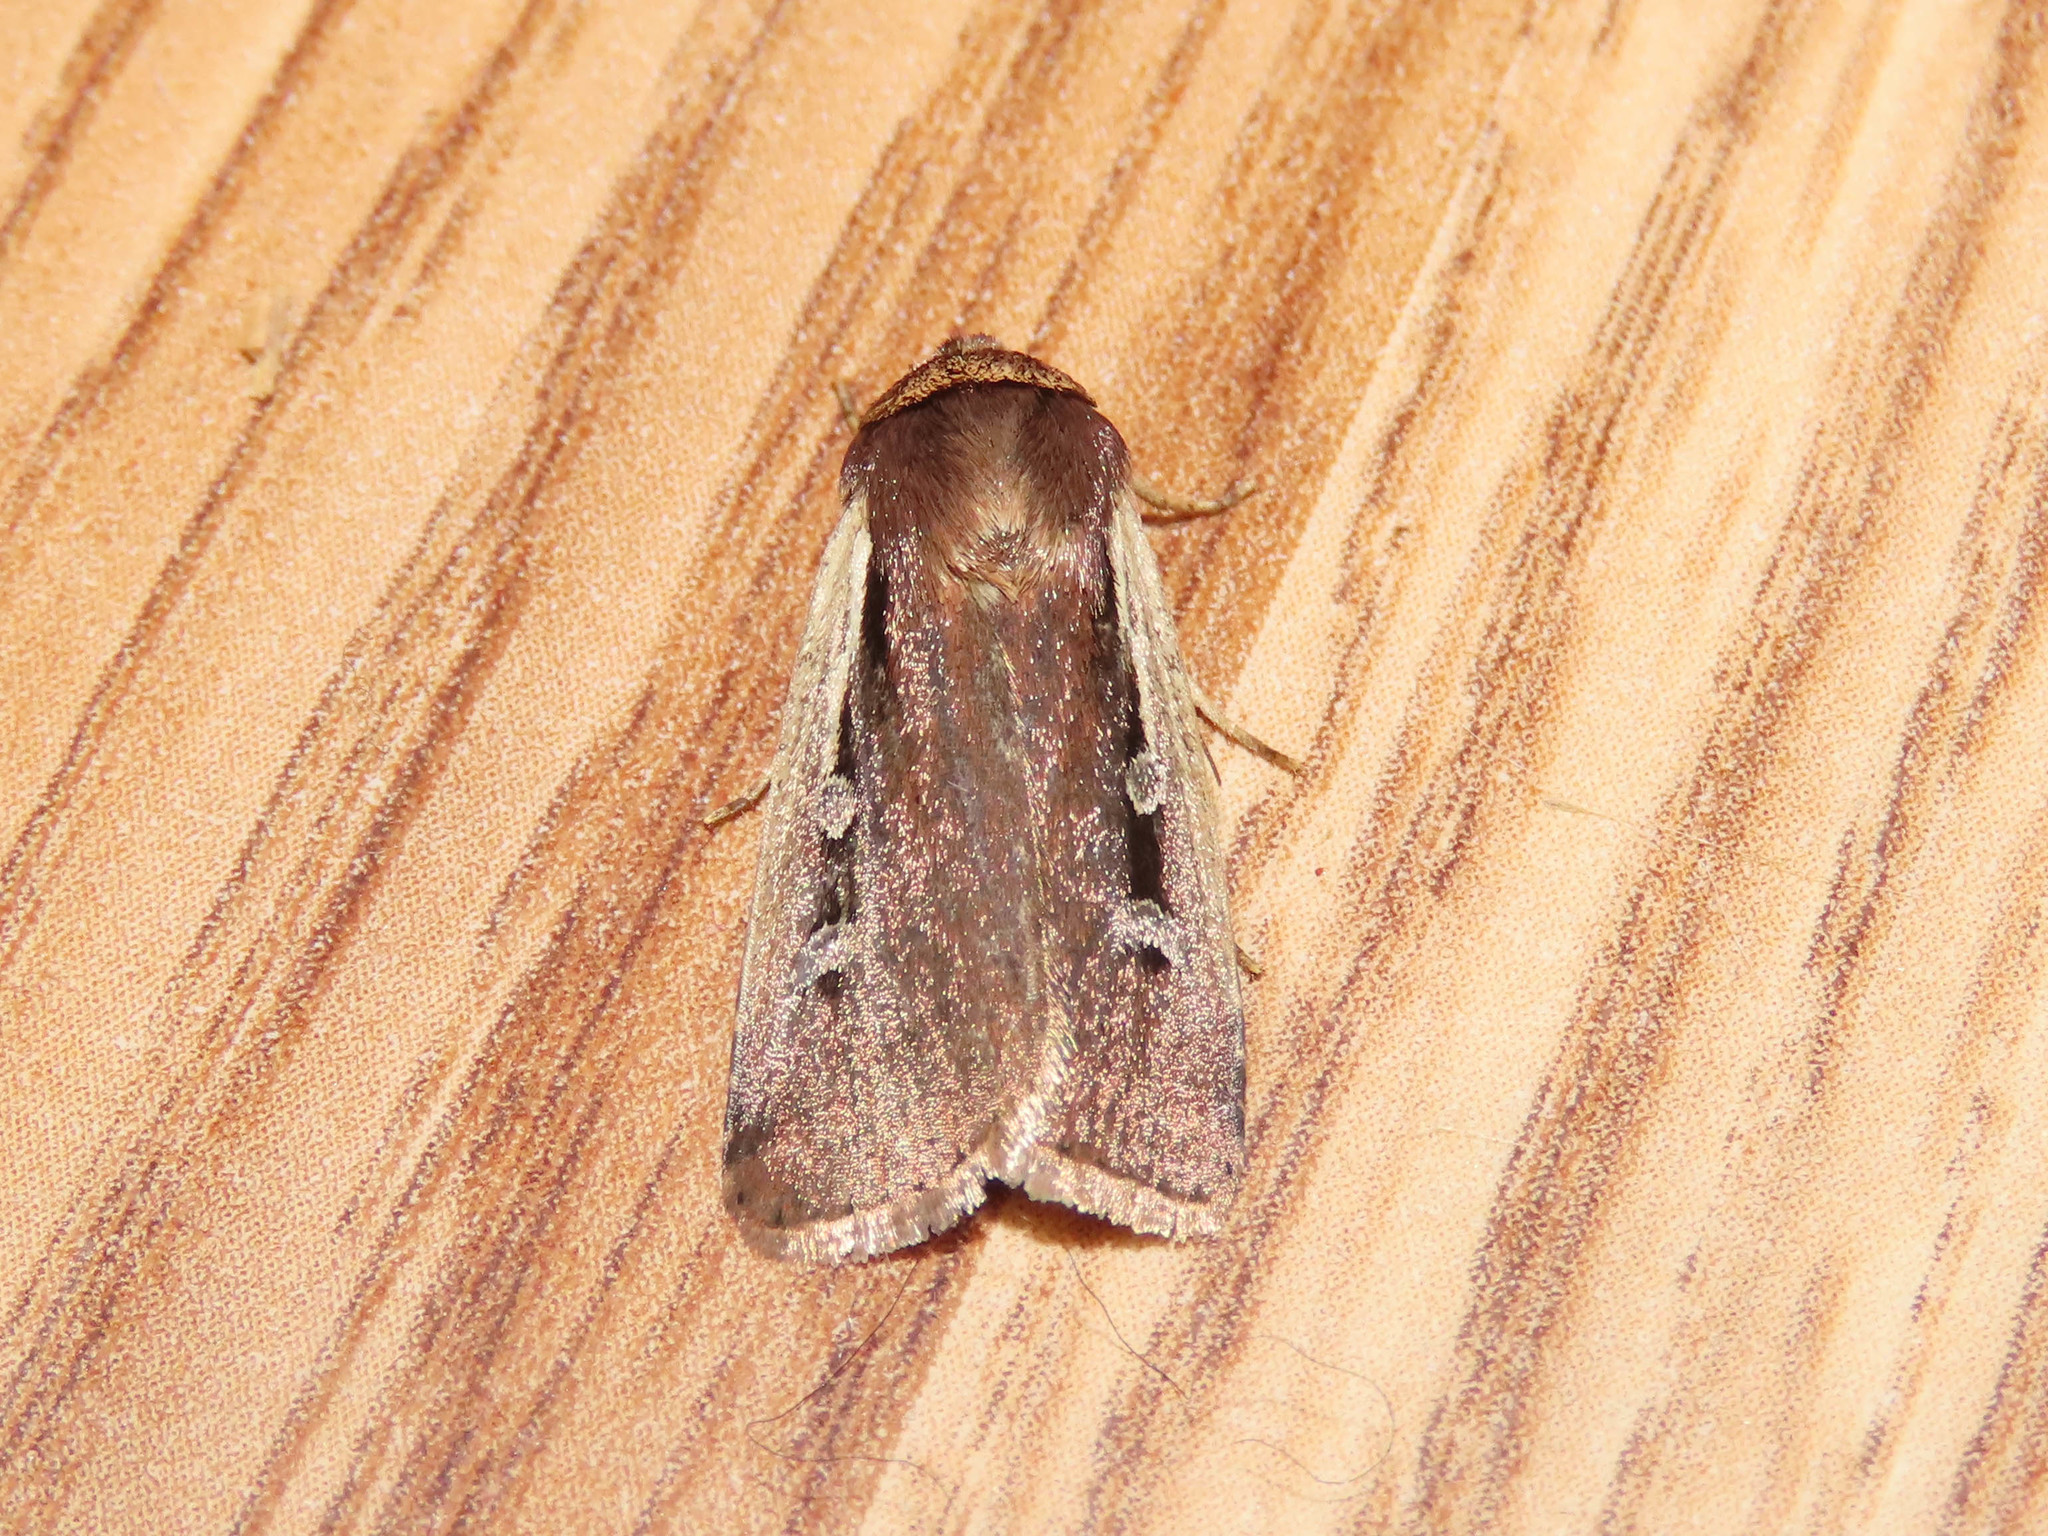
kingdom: Animalia
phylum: Arthropoda
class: Insecta
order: Lepidoptera
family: Noctuidae
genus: Ochropleura
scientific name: Ochropleura implecta
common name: Flame-shouldered dart
